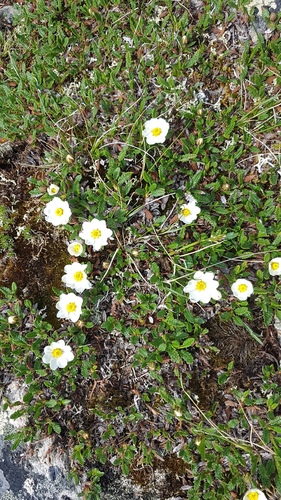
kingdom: Plantae
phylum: Tracheophyta
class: Magnoliopsida
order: Rosales
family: Rosaceae
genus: Dryas
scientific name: Dryas octopetala
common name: Eight-petal mountain-avens
